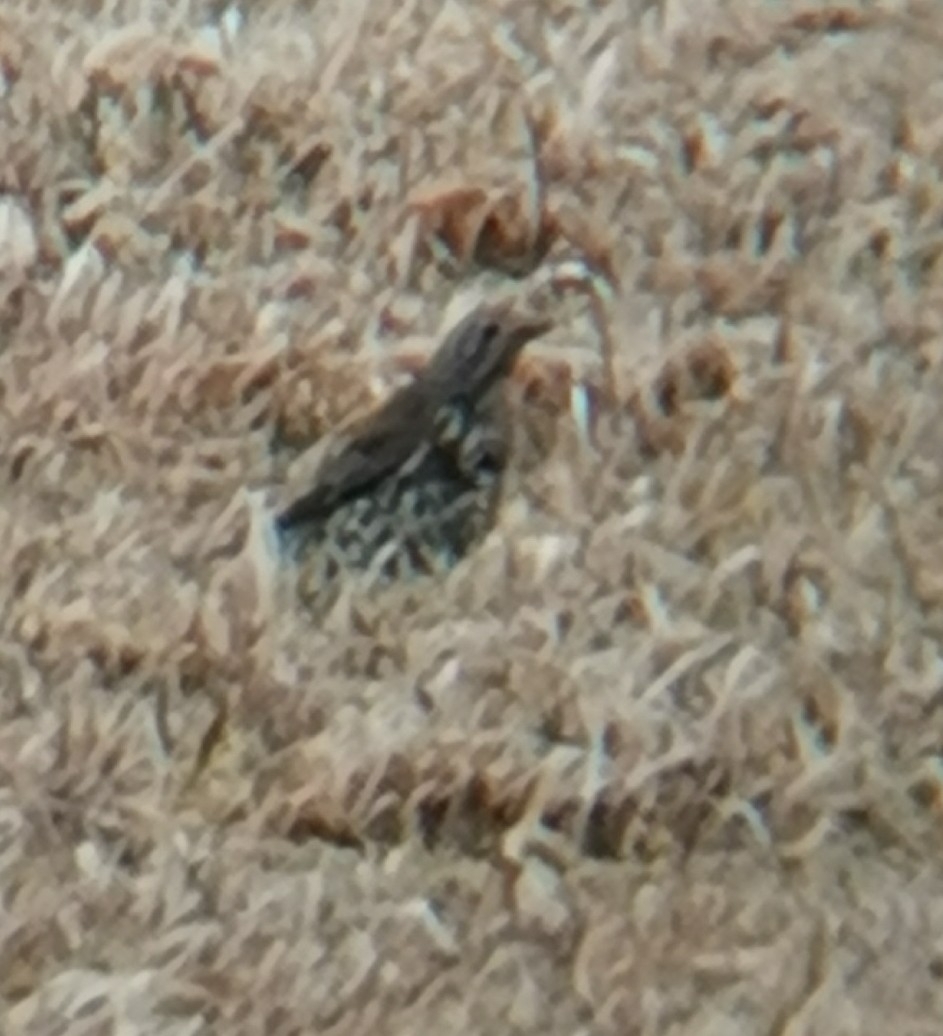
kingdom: Animalia
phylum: Chordata
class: Aves
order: Passeriformes
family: Turdidae
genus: Turdus
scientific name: Turdus viscivorus
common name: Mistle thrush
